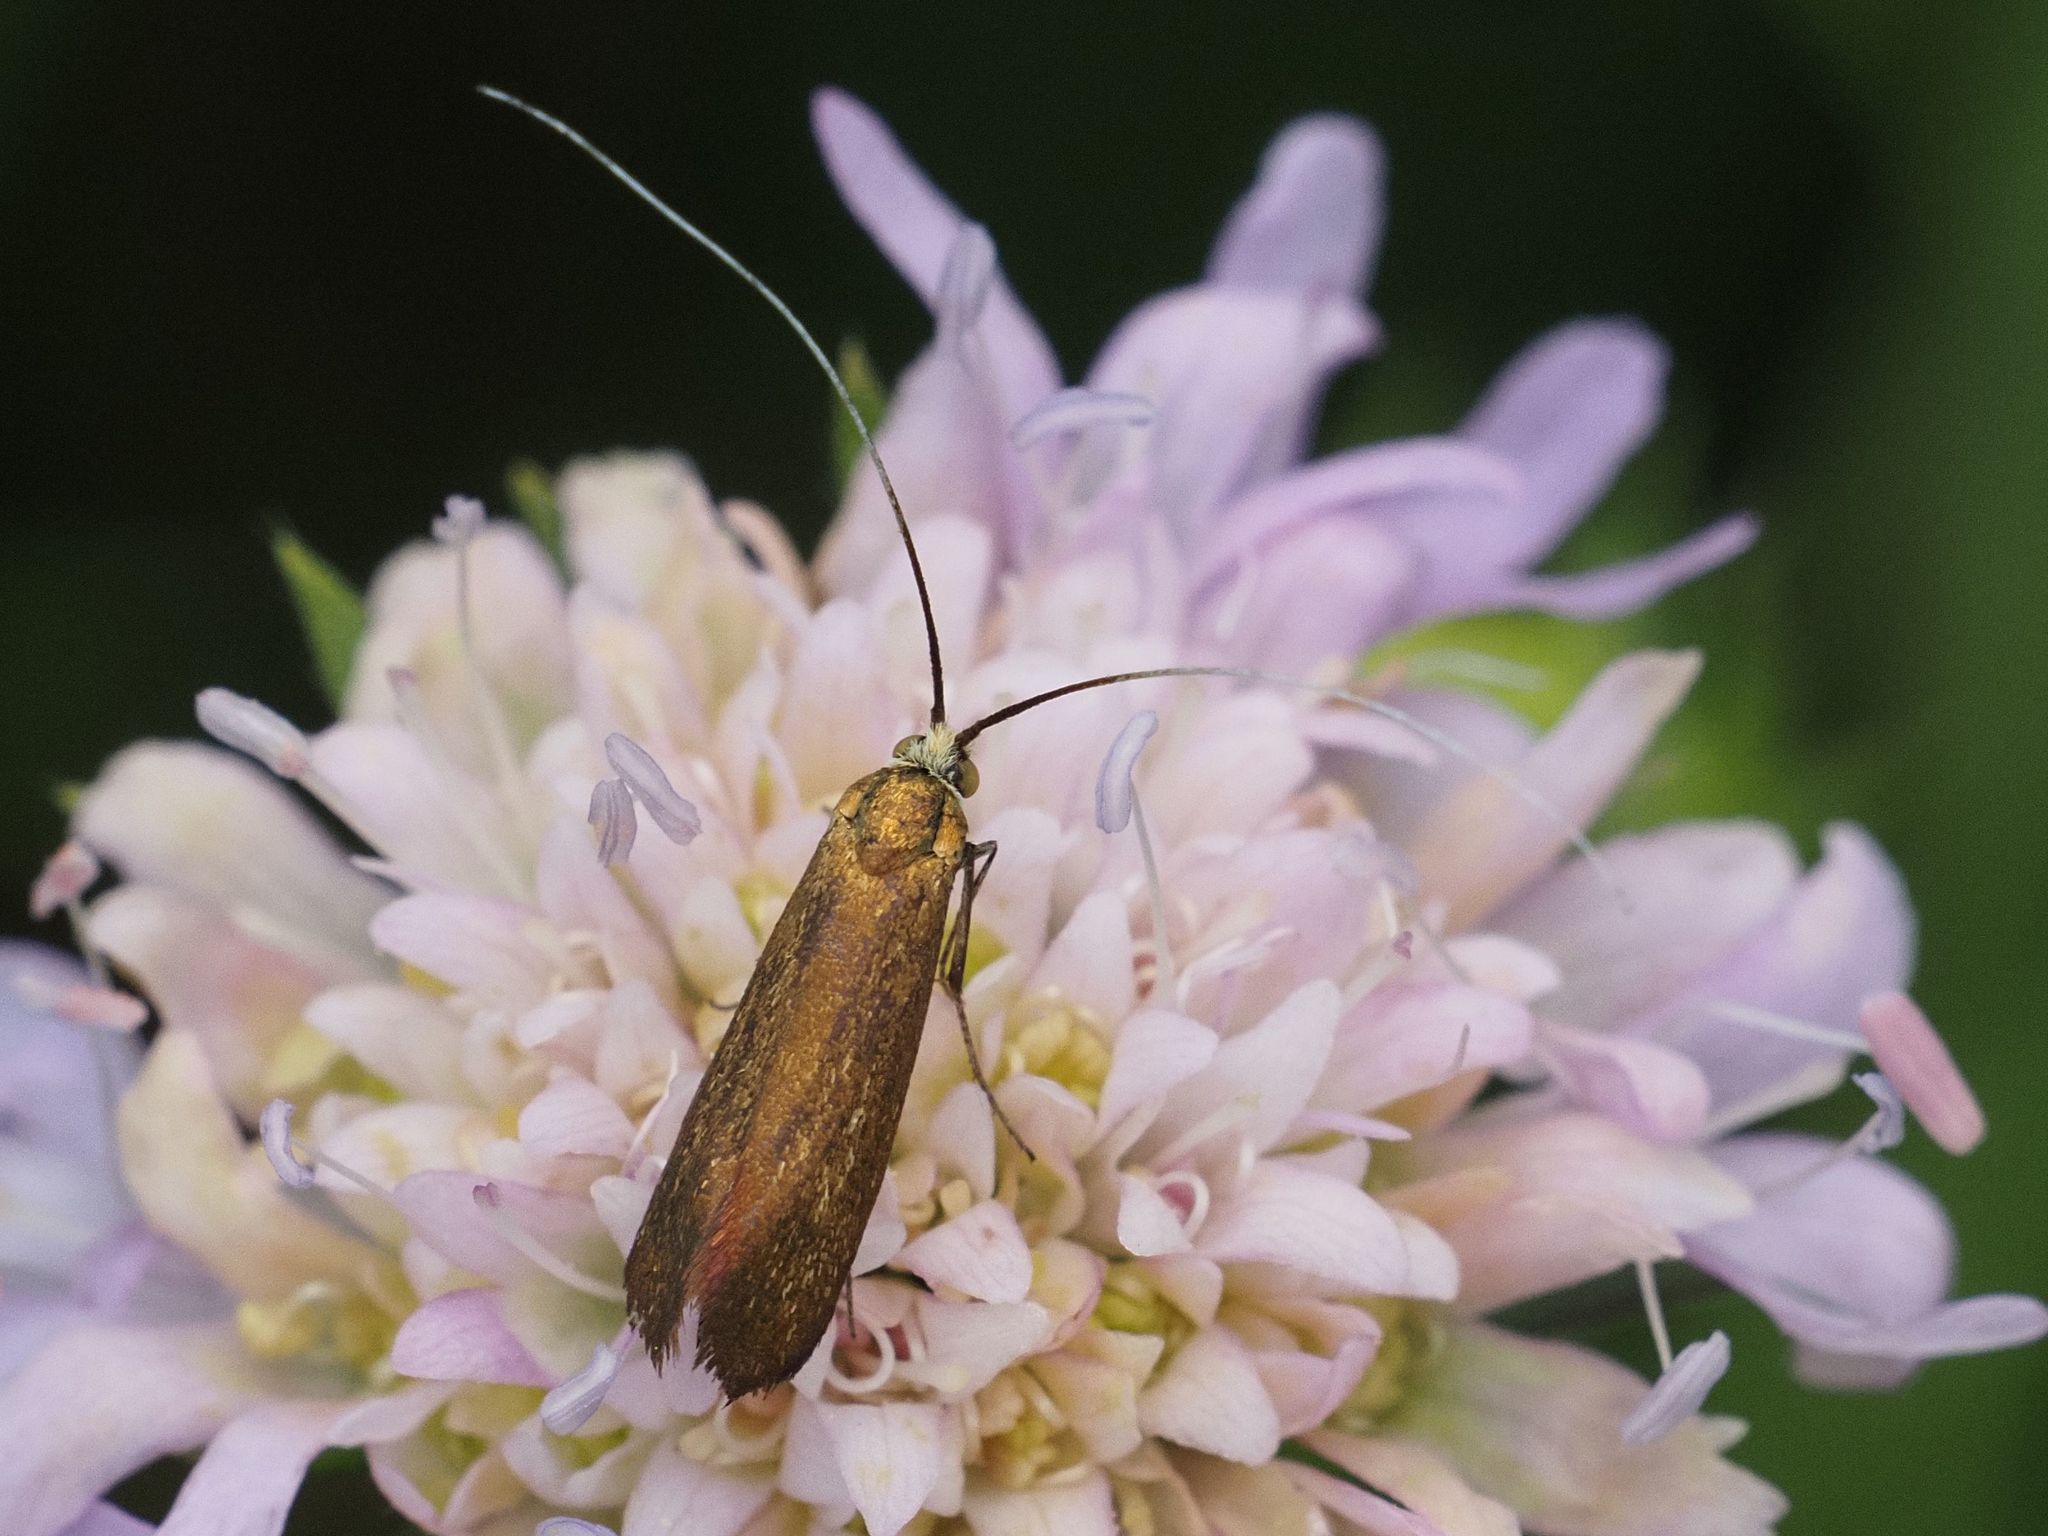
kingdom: Animalia
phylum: Arthropoda
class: Insecta
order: Lepidoptera
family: Adelidae
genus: Nemophora
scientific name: Nemophora metallica
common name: Brassy long-horn
